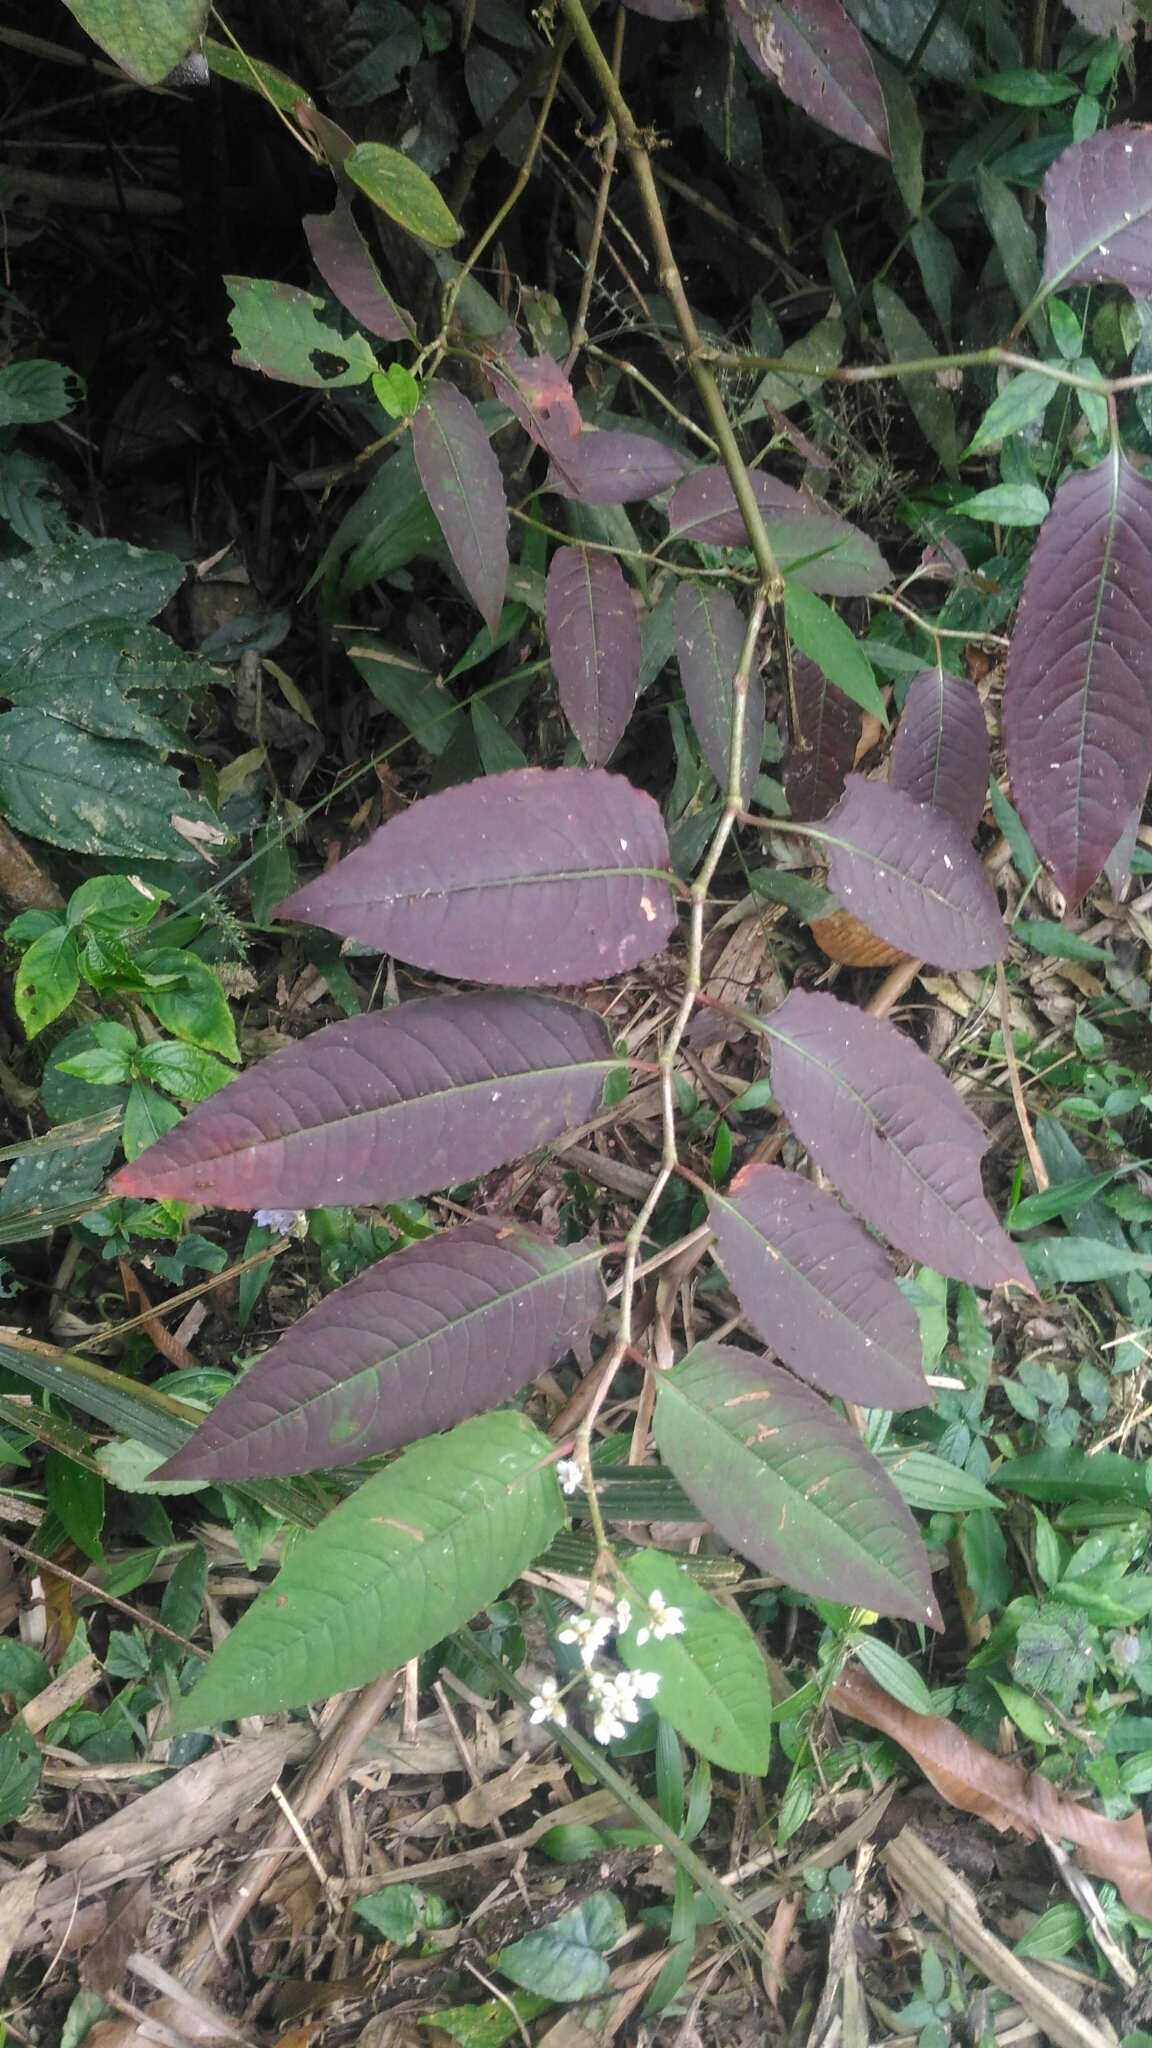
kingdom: Plantae
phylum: Tracheophyta
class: Magnoliopsida
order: Caryophyllales
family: Polygonaceae
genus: Persicaria
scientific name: Persicaria chinensis
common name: Chinese knotweed
